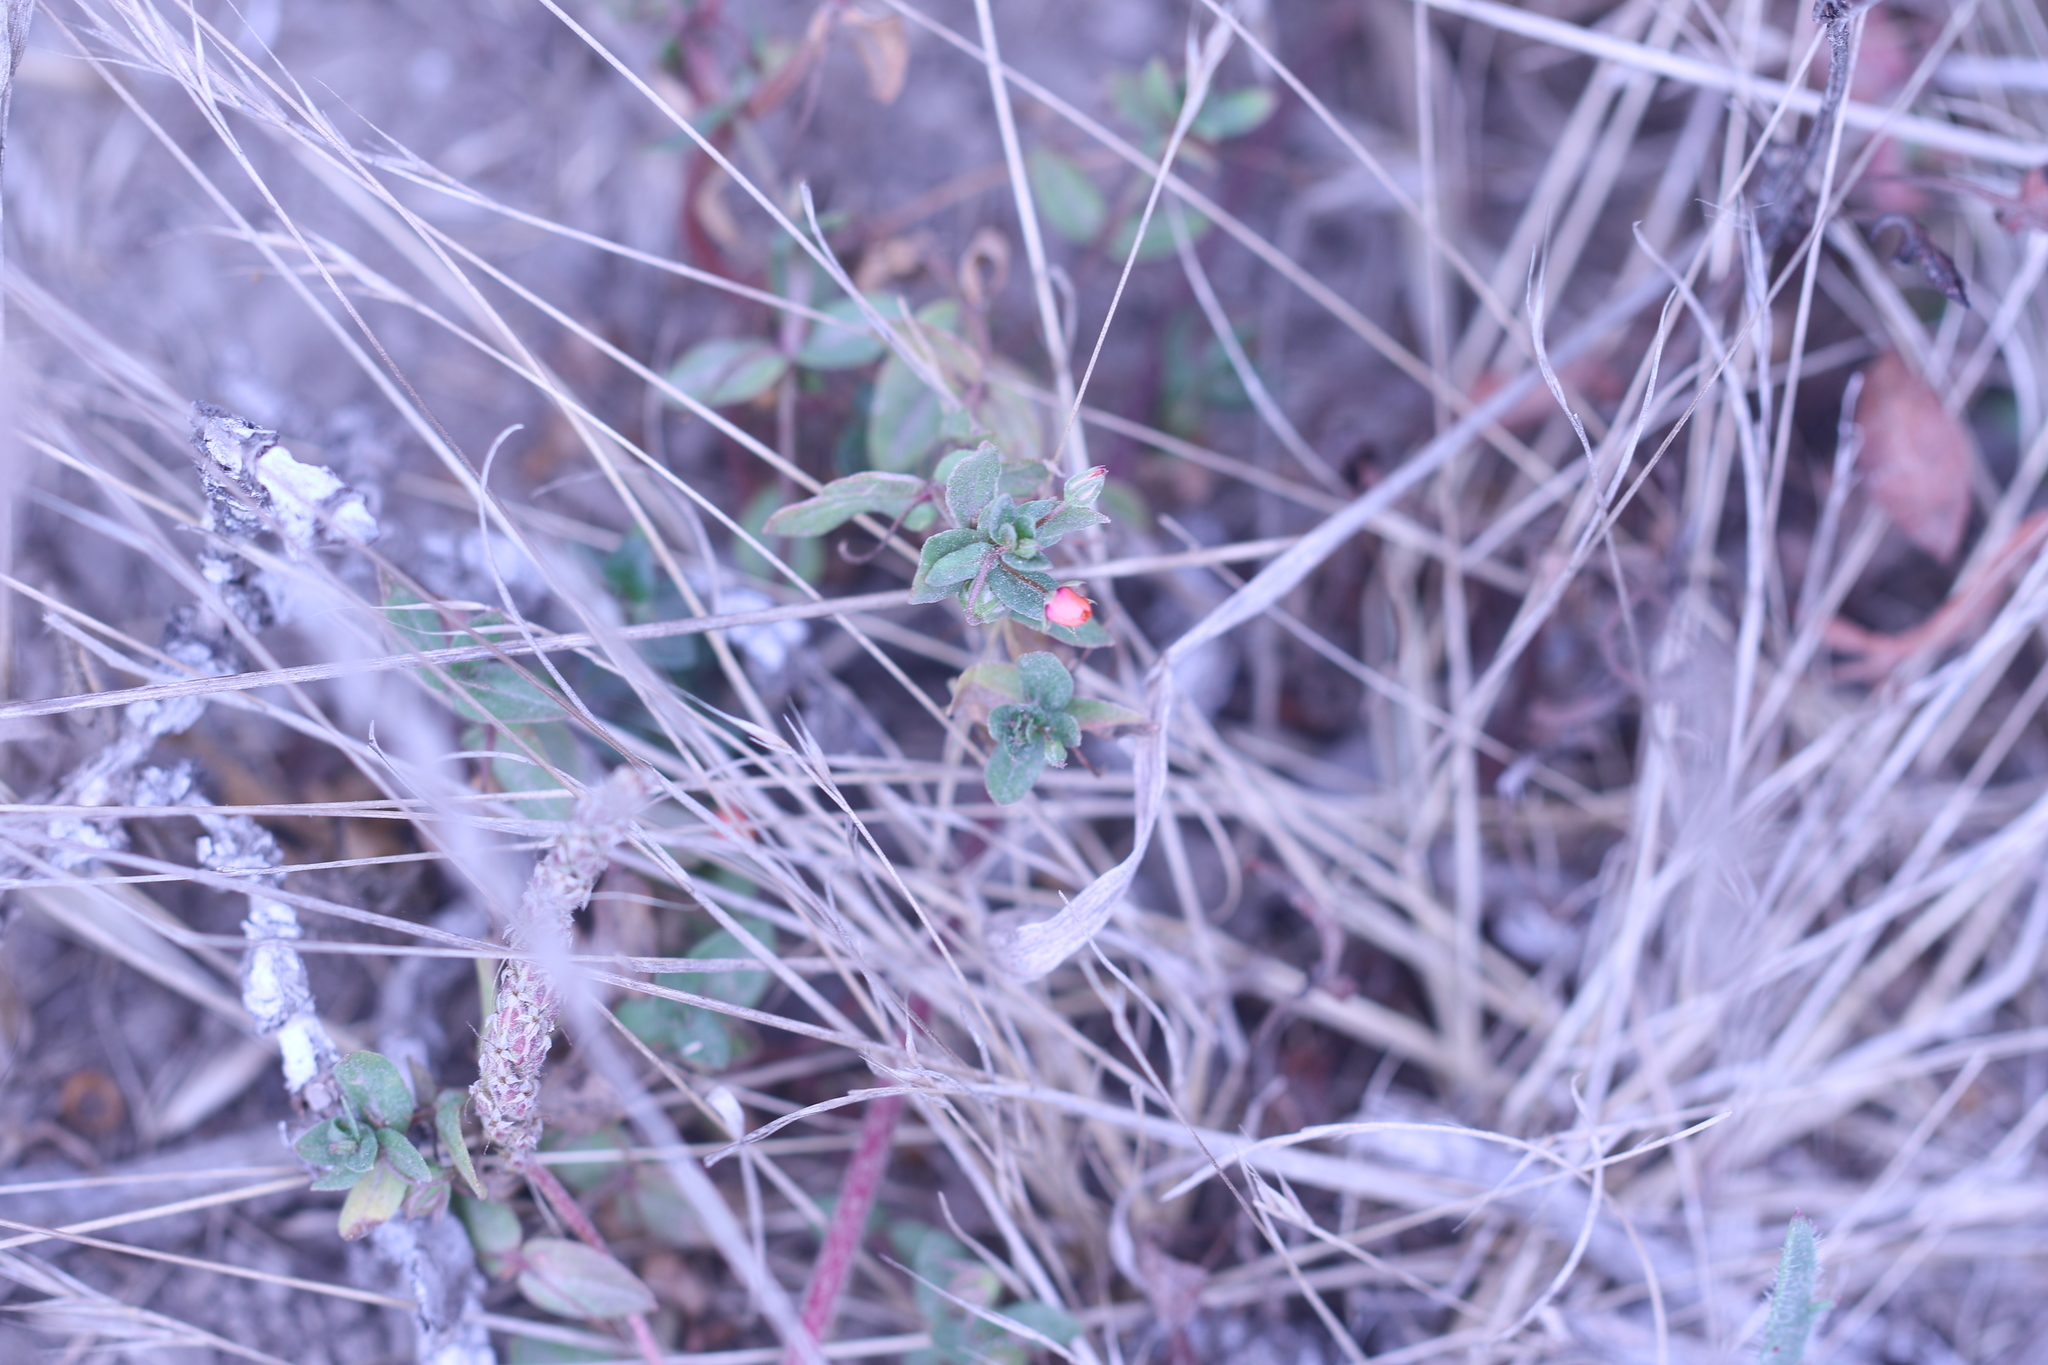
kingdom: Plantae
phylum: Tracheophyta
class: Magnoliopsida
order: Ericales
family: Primulaceae
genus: Lysimachia
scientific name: Lysimachia arvensis
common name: Scarlet pimpernel
